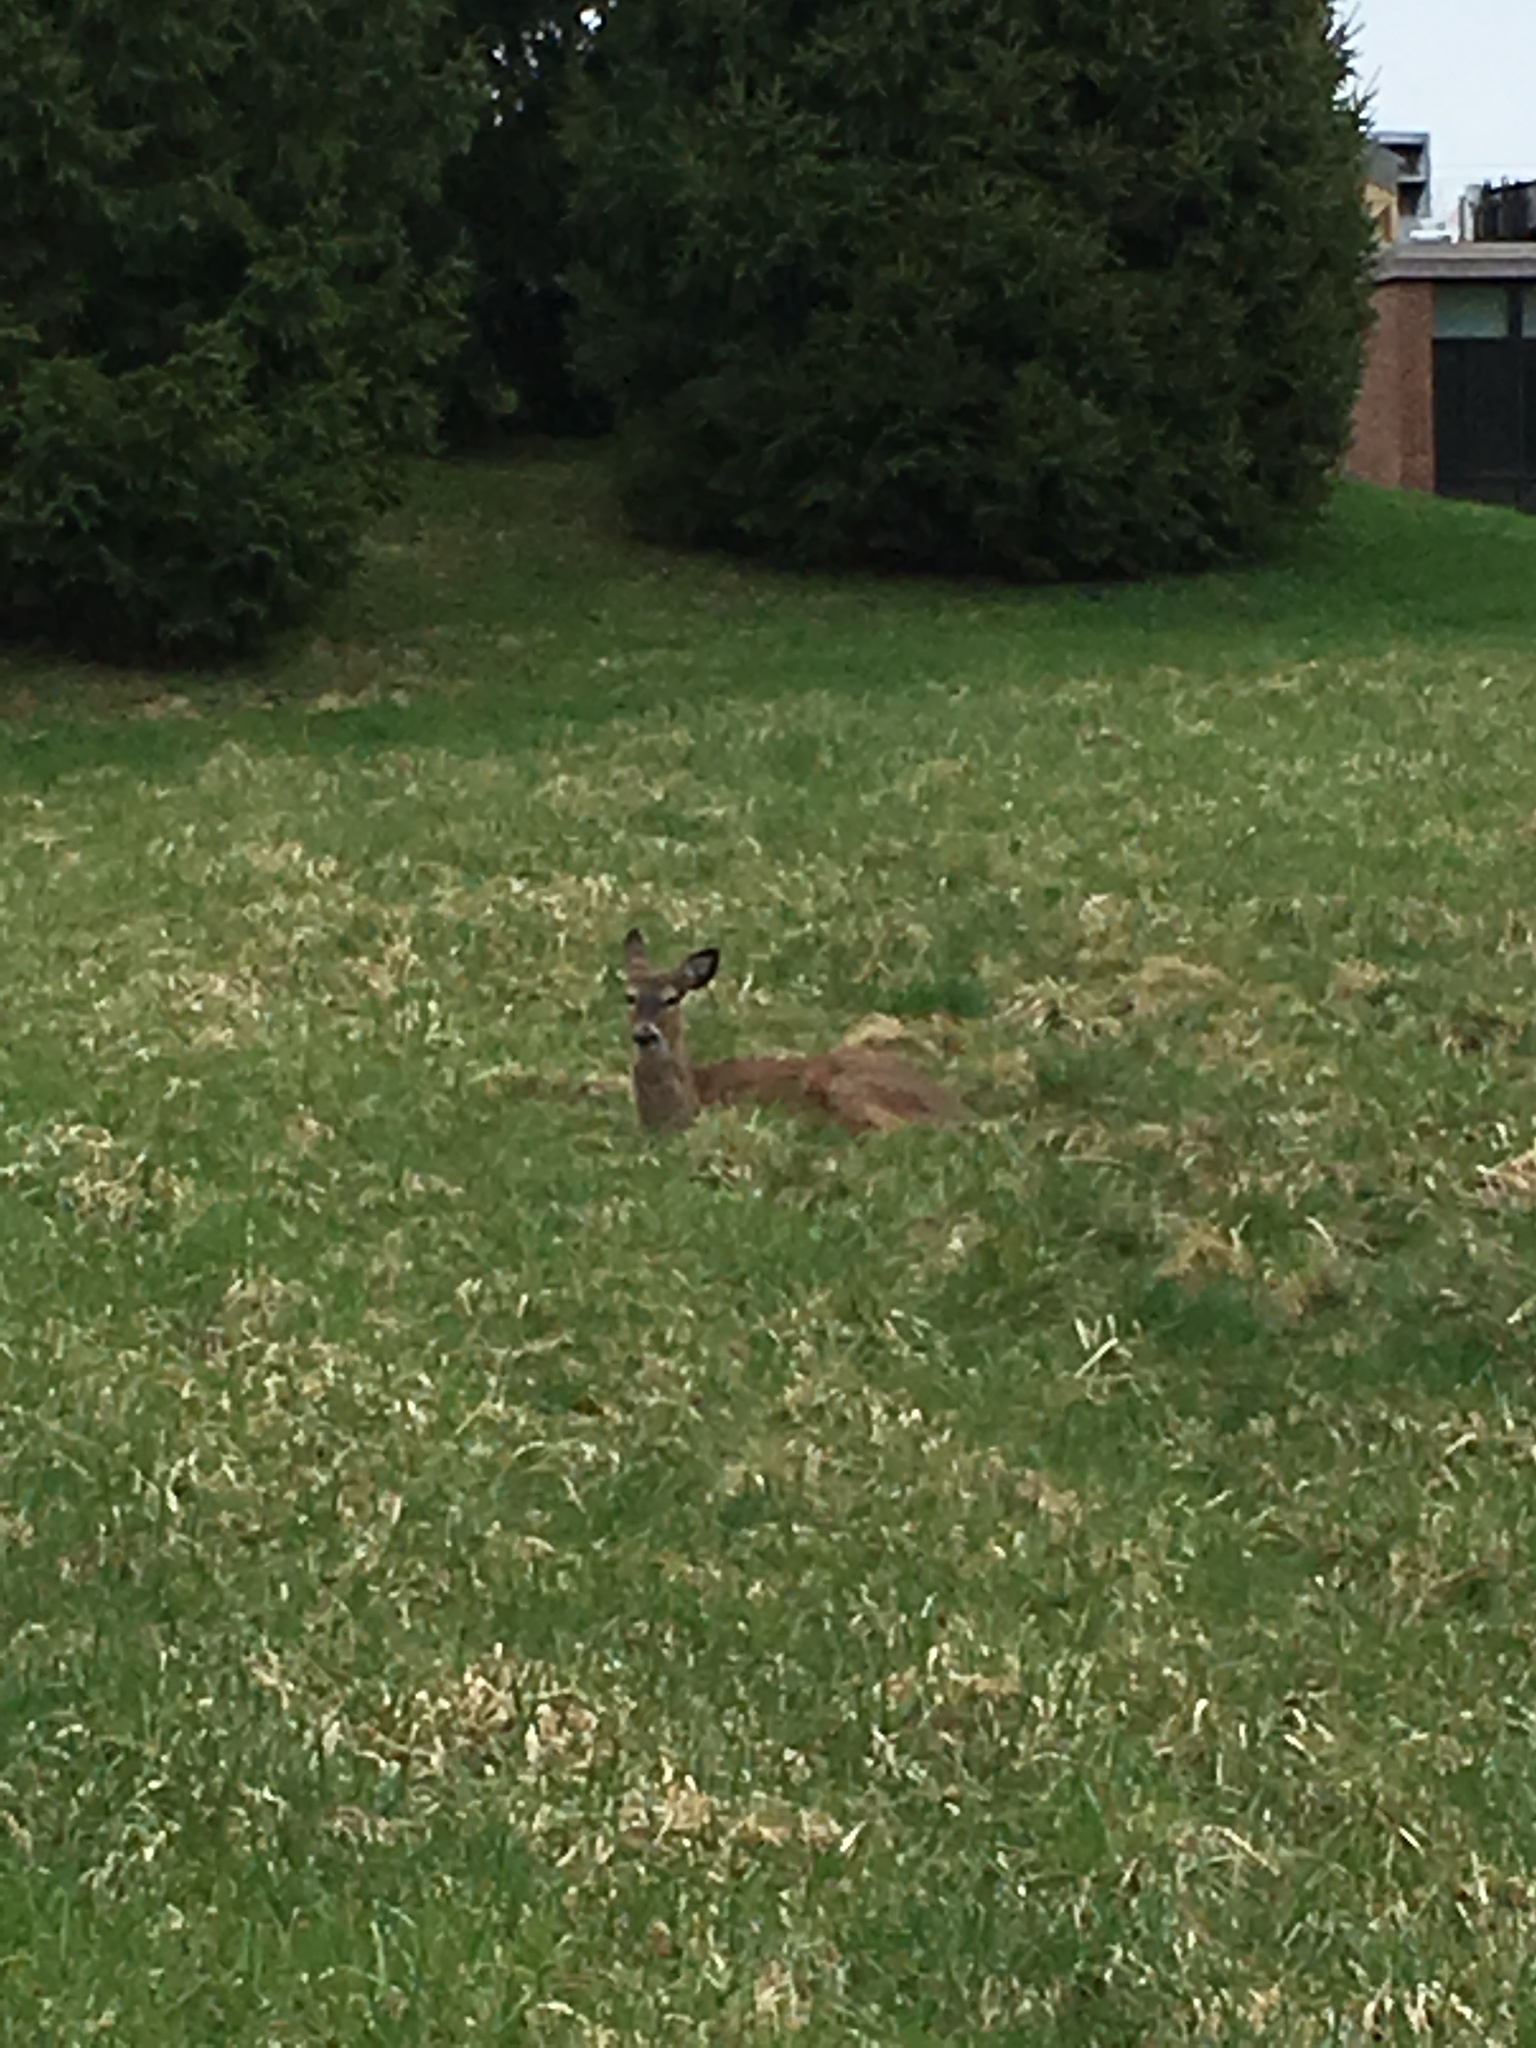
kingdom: Animalia
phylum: Chordata
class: Mammalia
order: Artiodactyla
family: Cervidae
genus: Odocoileus
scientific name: Odocoileus virginianus
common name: White-tailed deer
